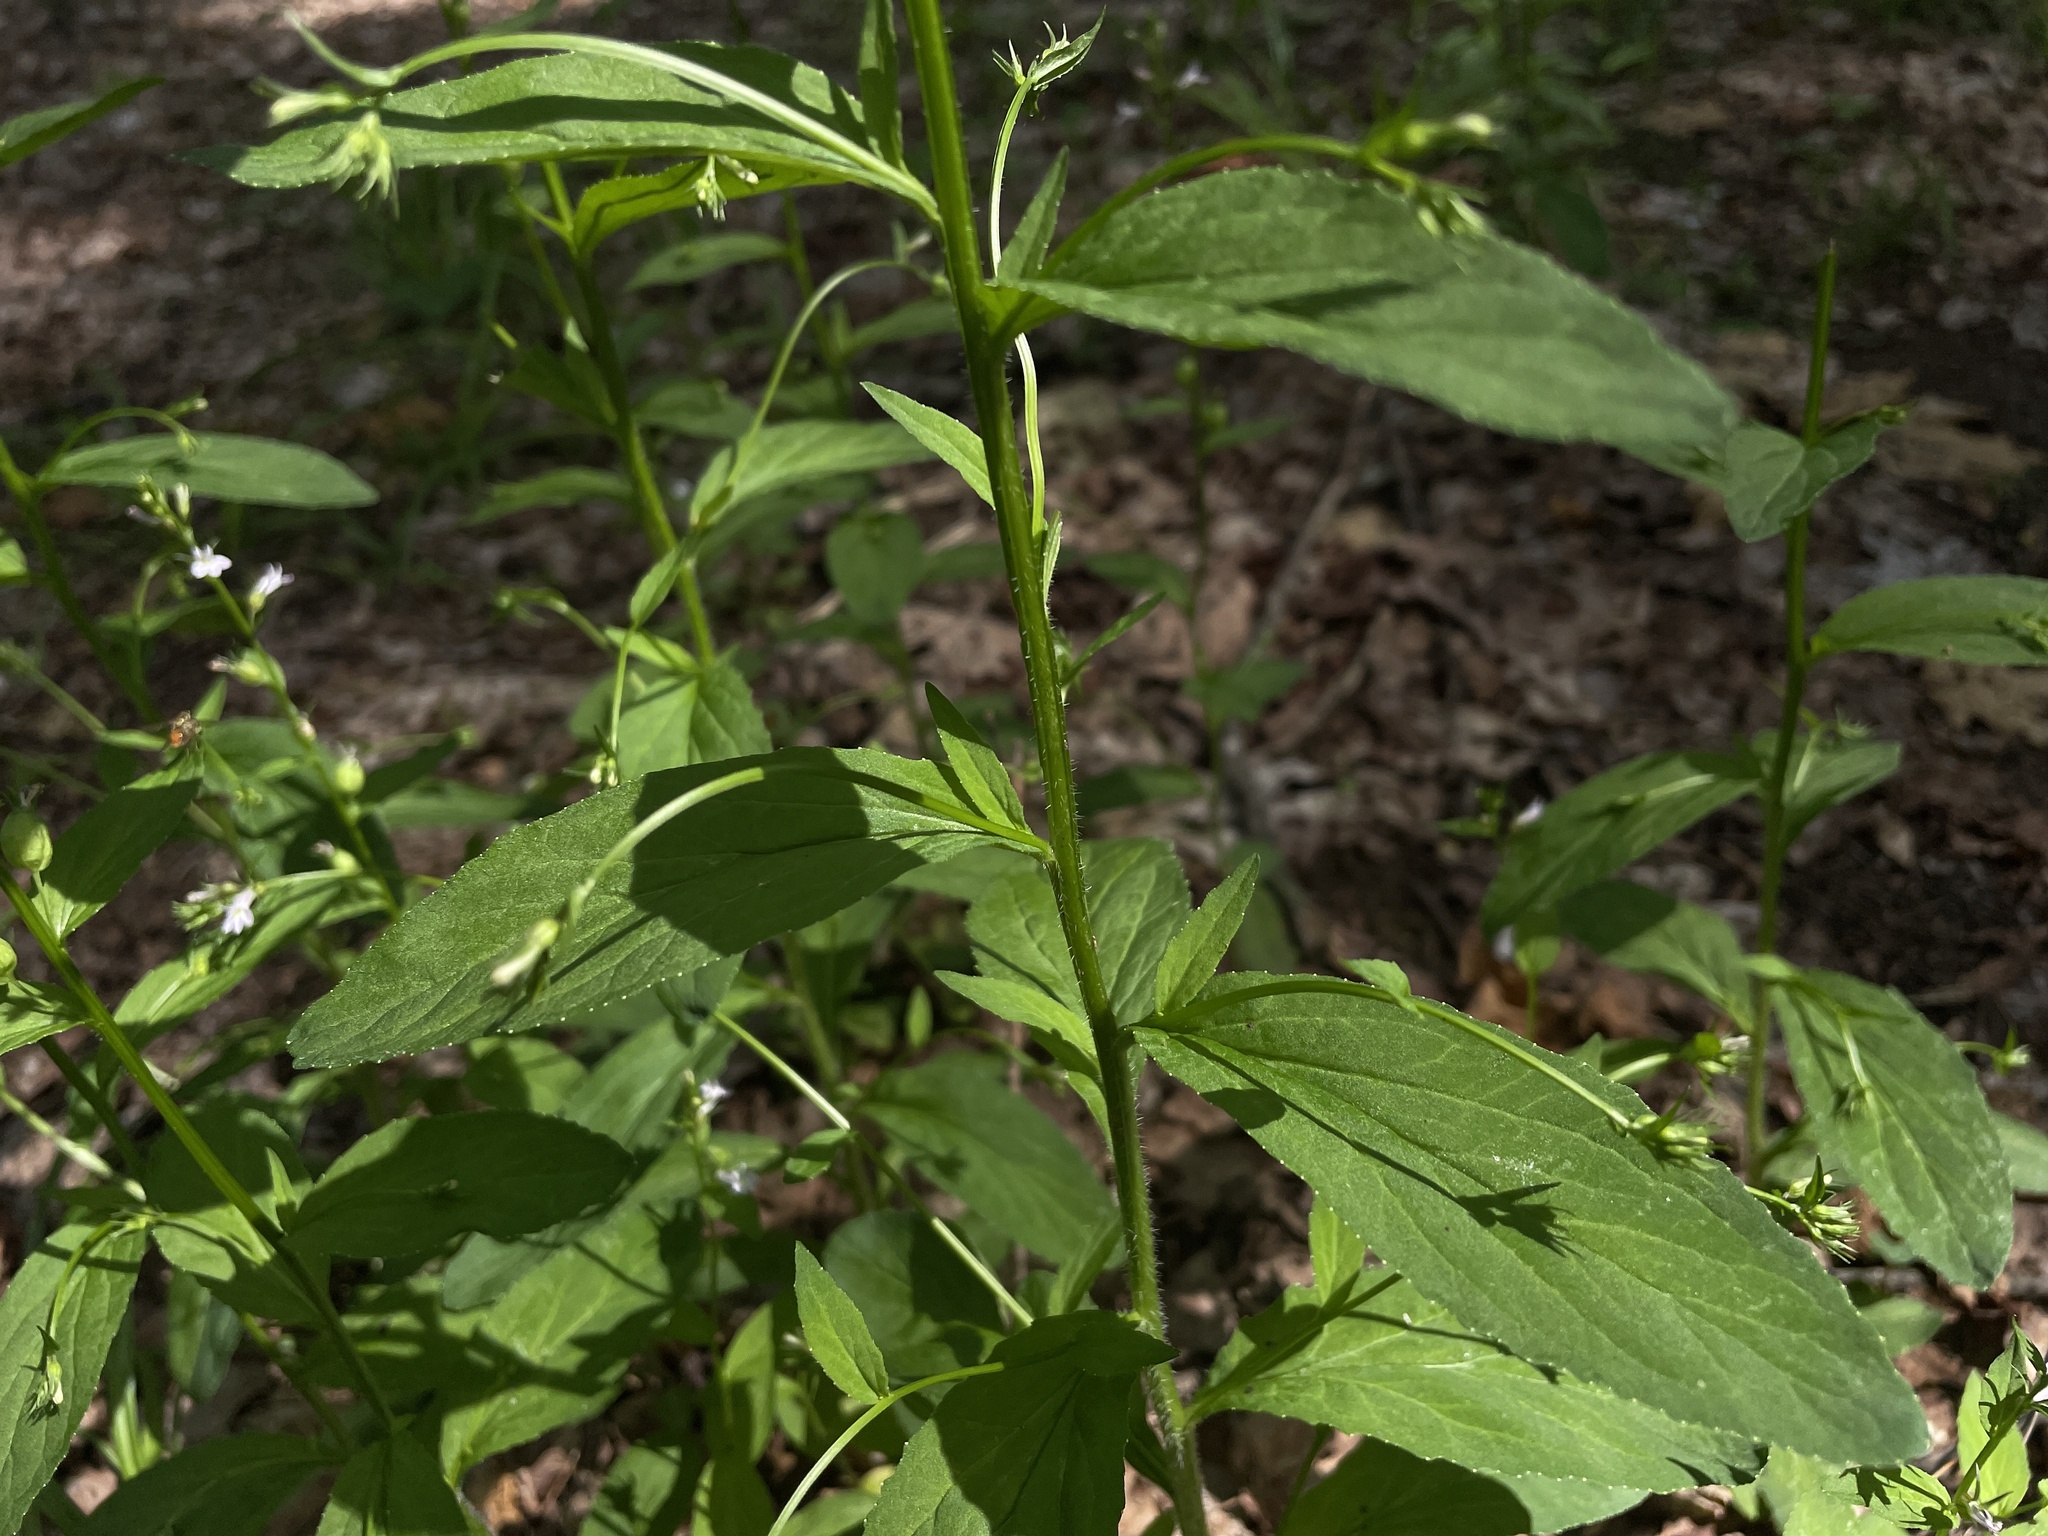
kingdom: Plantae
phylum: Tracheophyta
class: Magnoliopsida
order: Asterales
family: Campanulaceae
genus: Lobelia
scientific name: Lobelia inflata
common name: Indian tobacco
